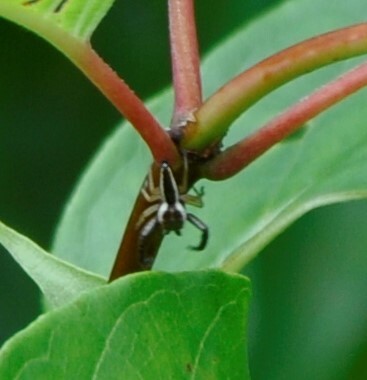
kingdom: Animalia
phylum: Arthropoda
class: Arachnida
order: Araneae
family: Salticidae
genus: Hentzia
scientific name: Hentzia palmarum
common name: Common hentz jumping spider
